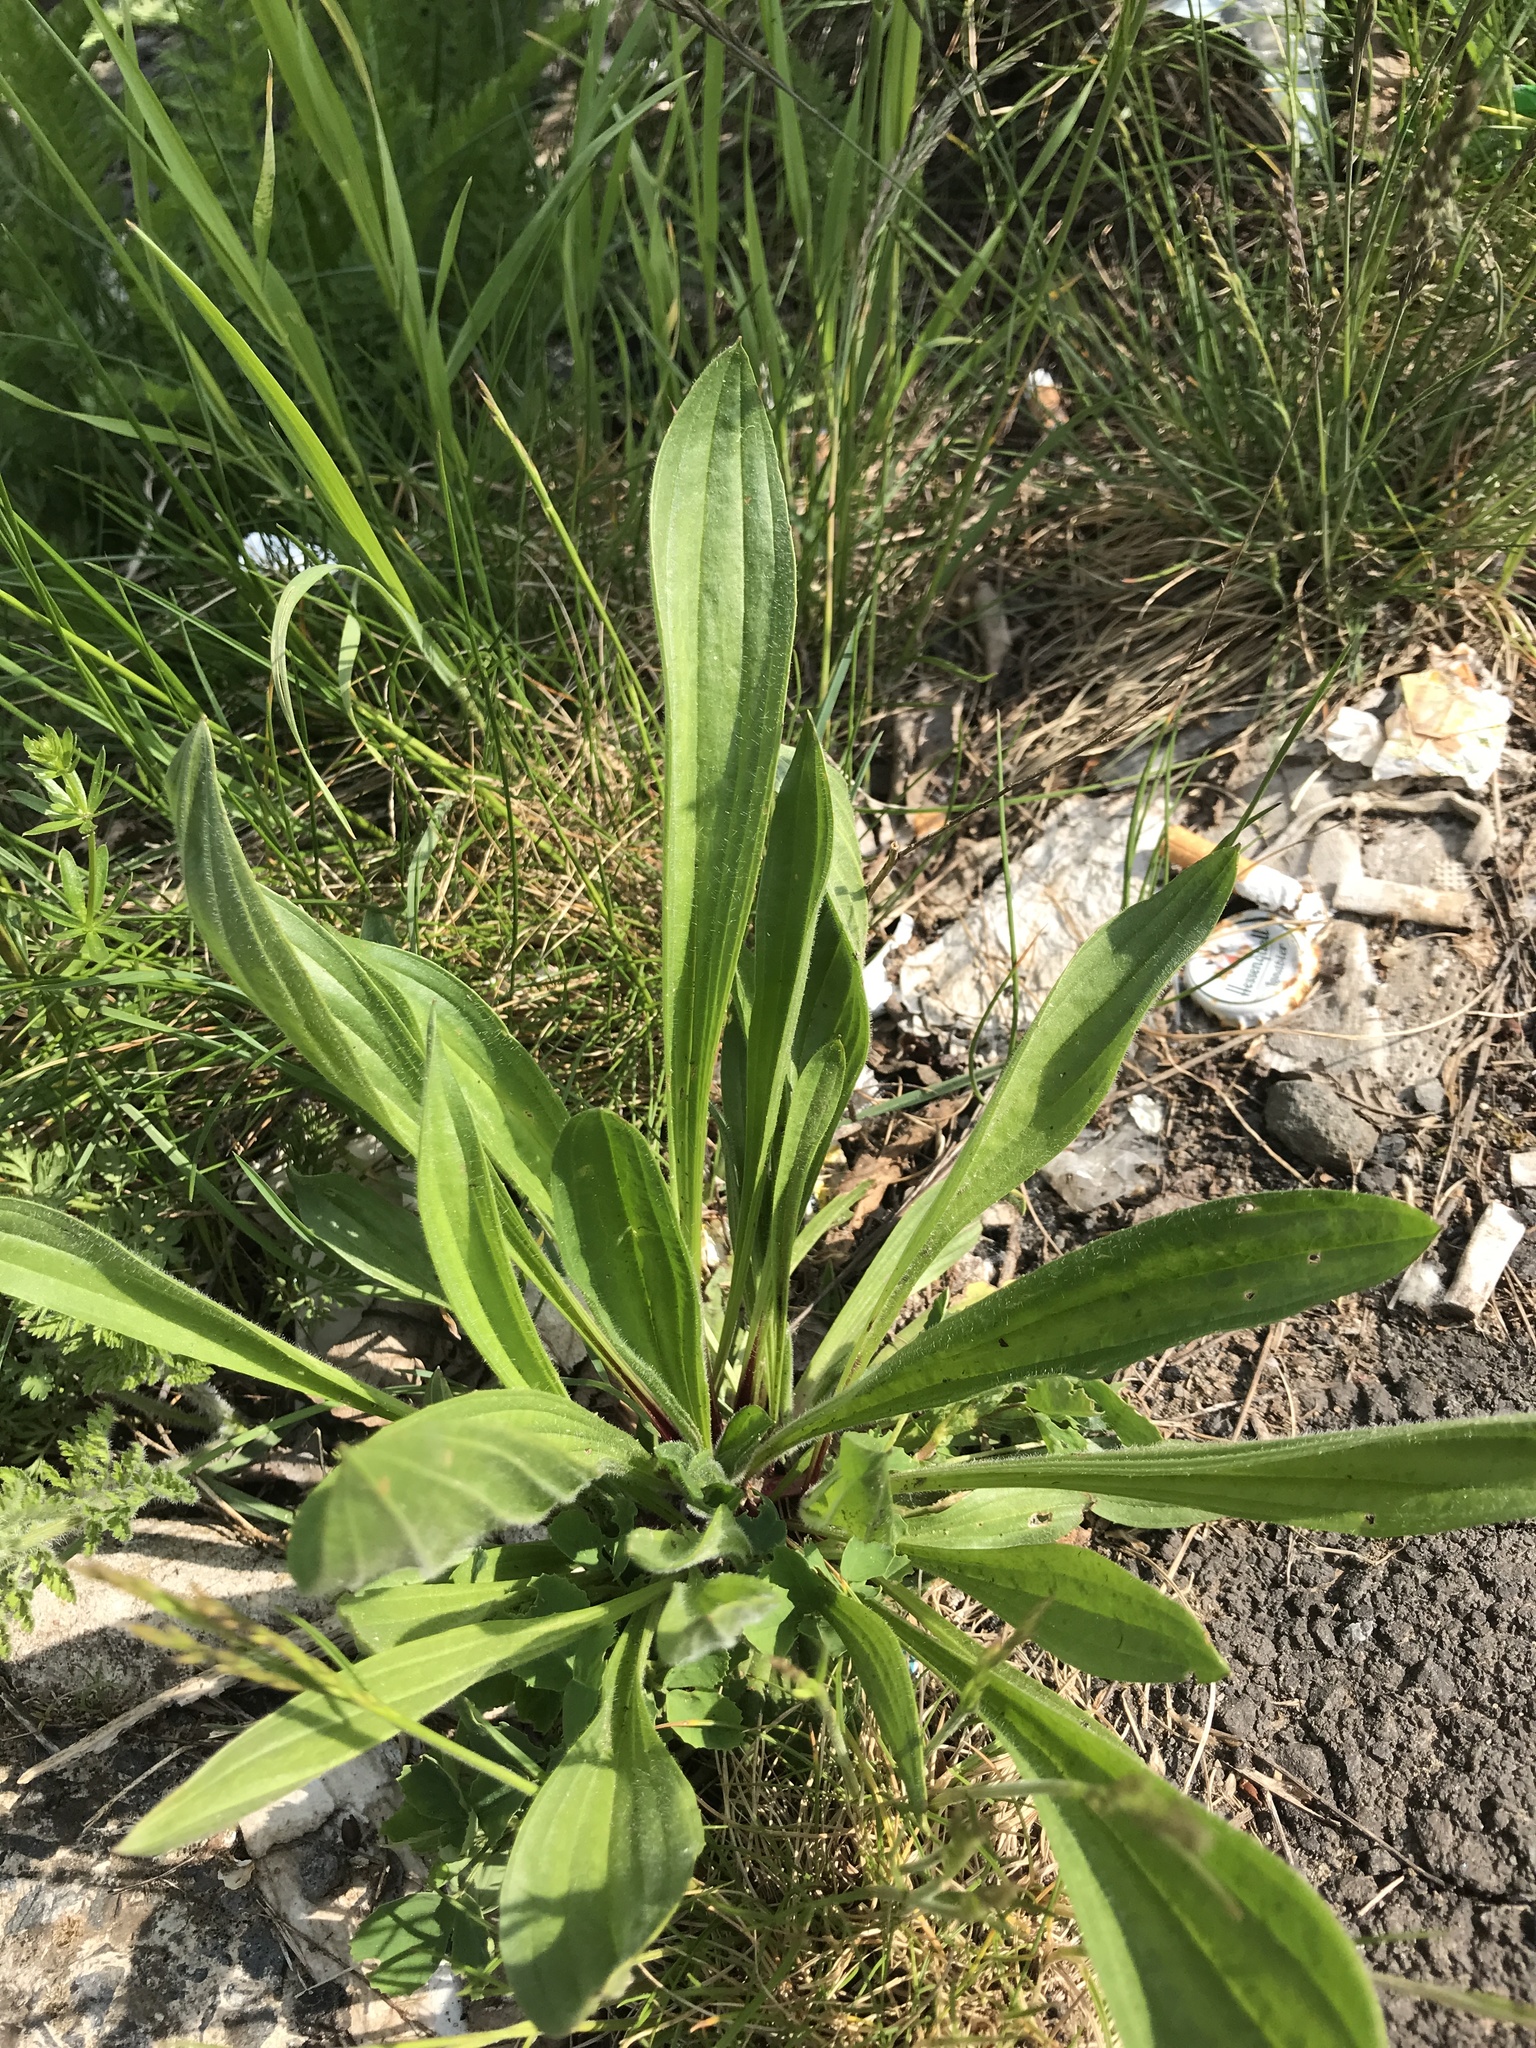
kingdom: Plantae
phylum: Tracheophyta
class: Magnoliopsida
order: Lamiales
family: Plantaginaceae
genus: Plantago
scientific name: Plantago lanceolata
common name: Ribwort plantain
